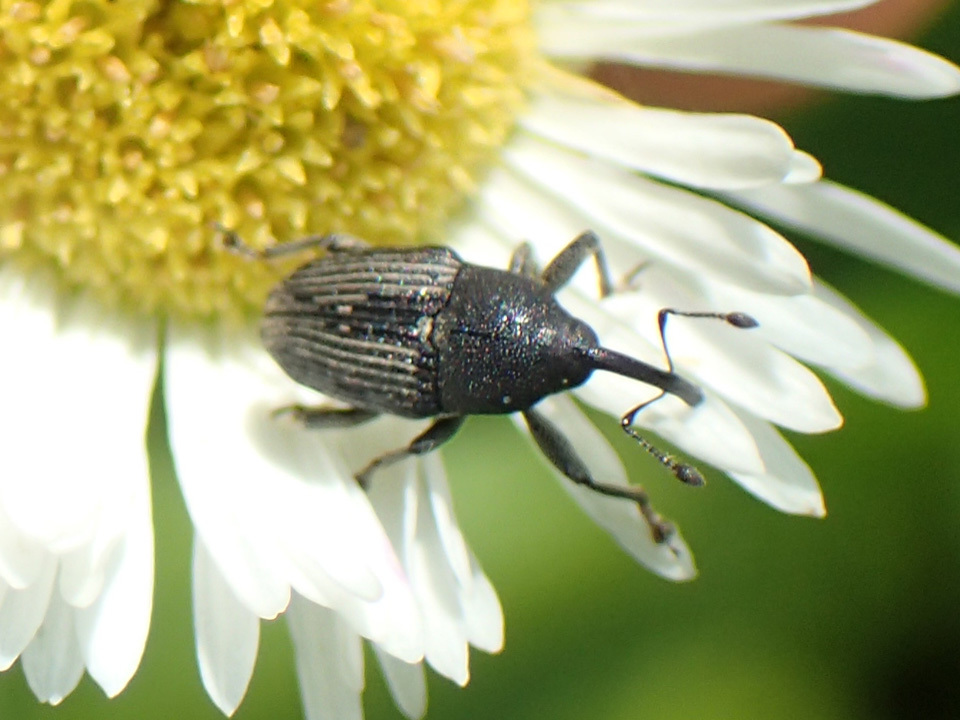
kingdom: Animalia
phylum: Arthropoda
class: Insecta
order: Coleoptera
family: Curculionidae
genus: Odontocorynus
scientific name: Odontocorynus salebrosus
